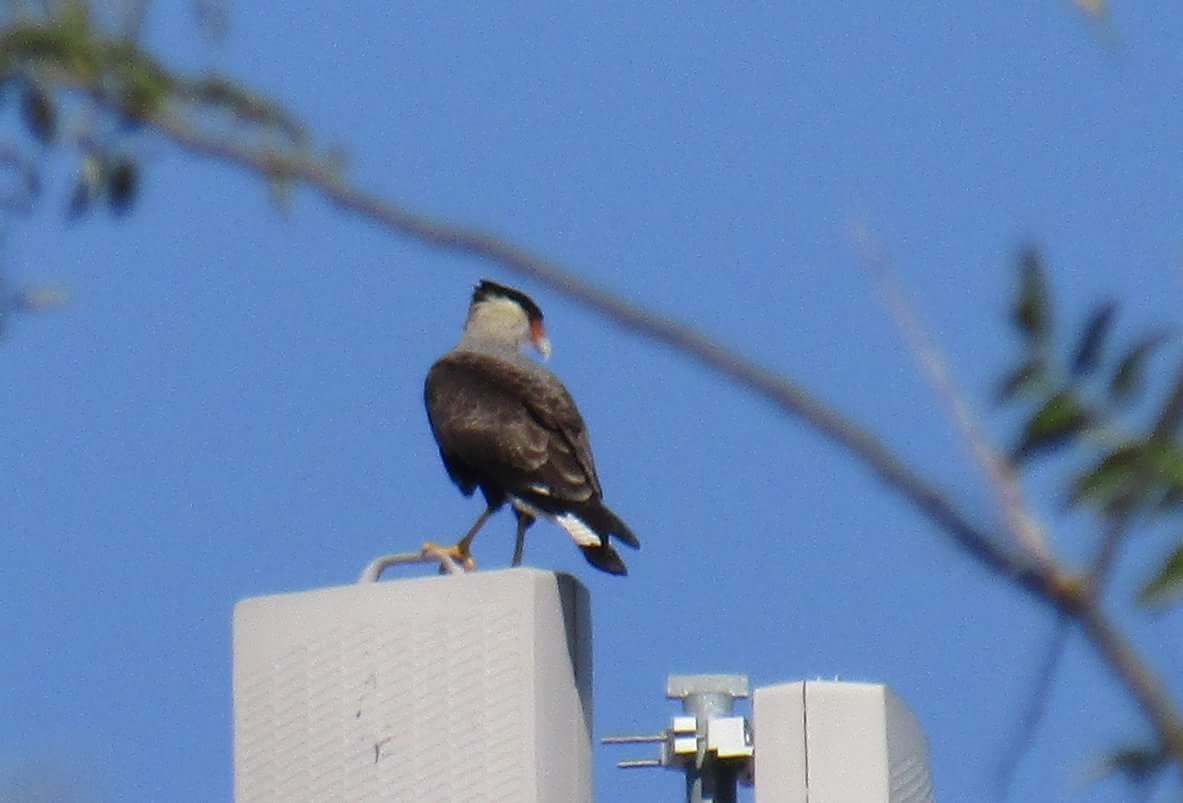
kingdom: Animalia
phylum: Chordata
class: Aves
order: Falconiformes
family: Falconidae
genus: Caracara
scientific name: Caracara plancus
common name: Southern caracara
